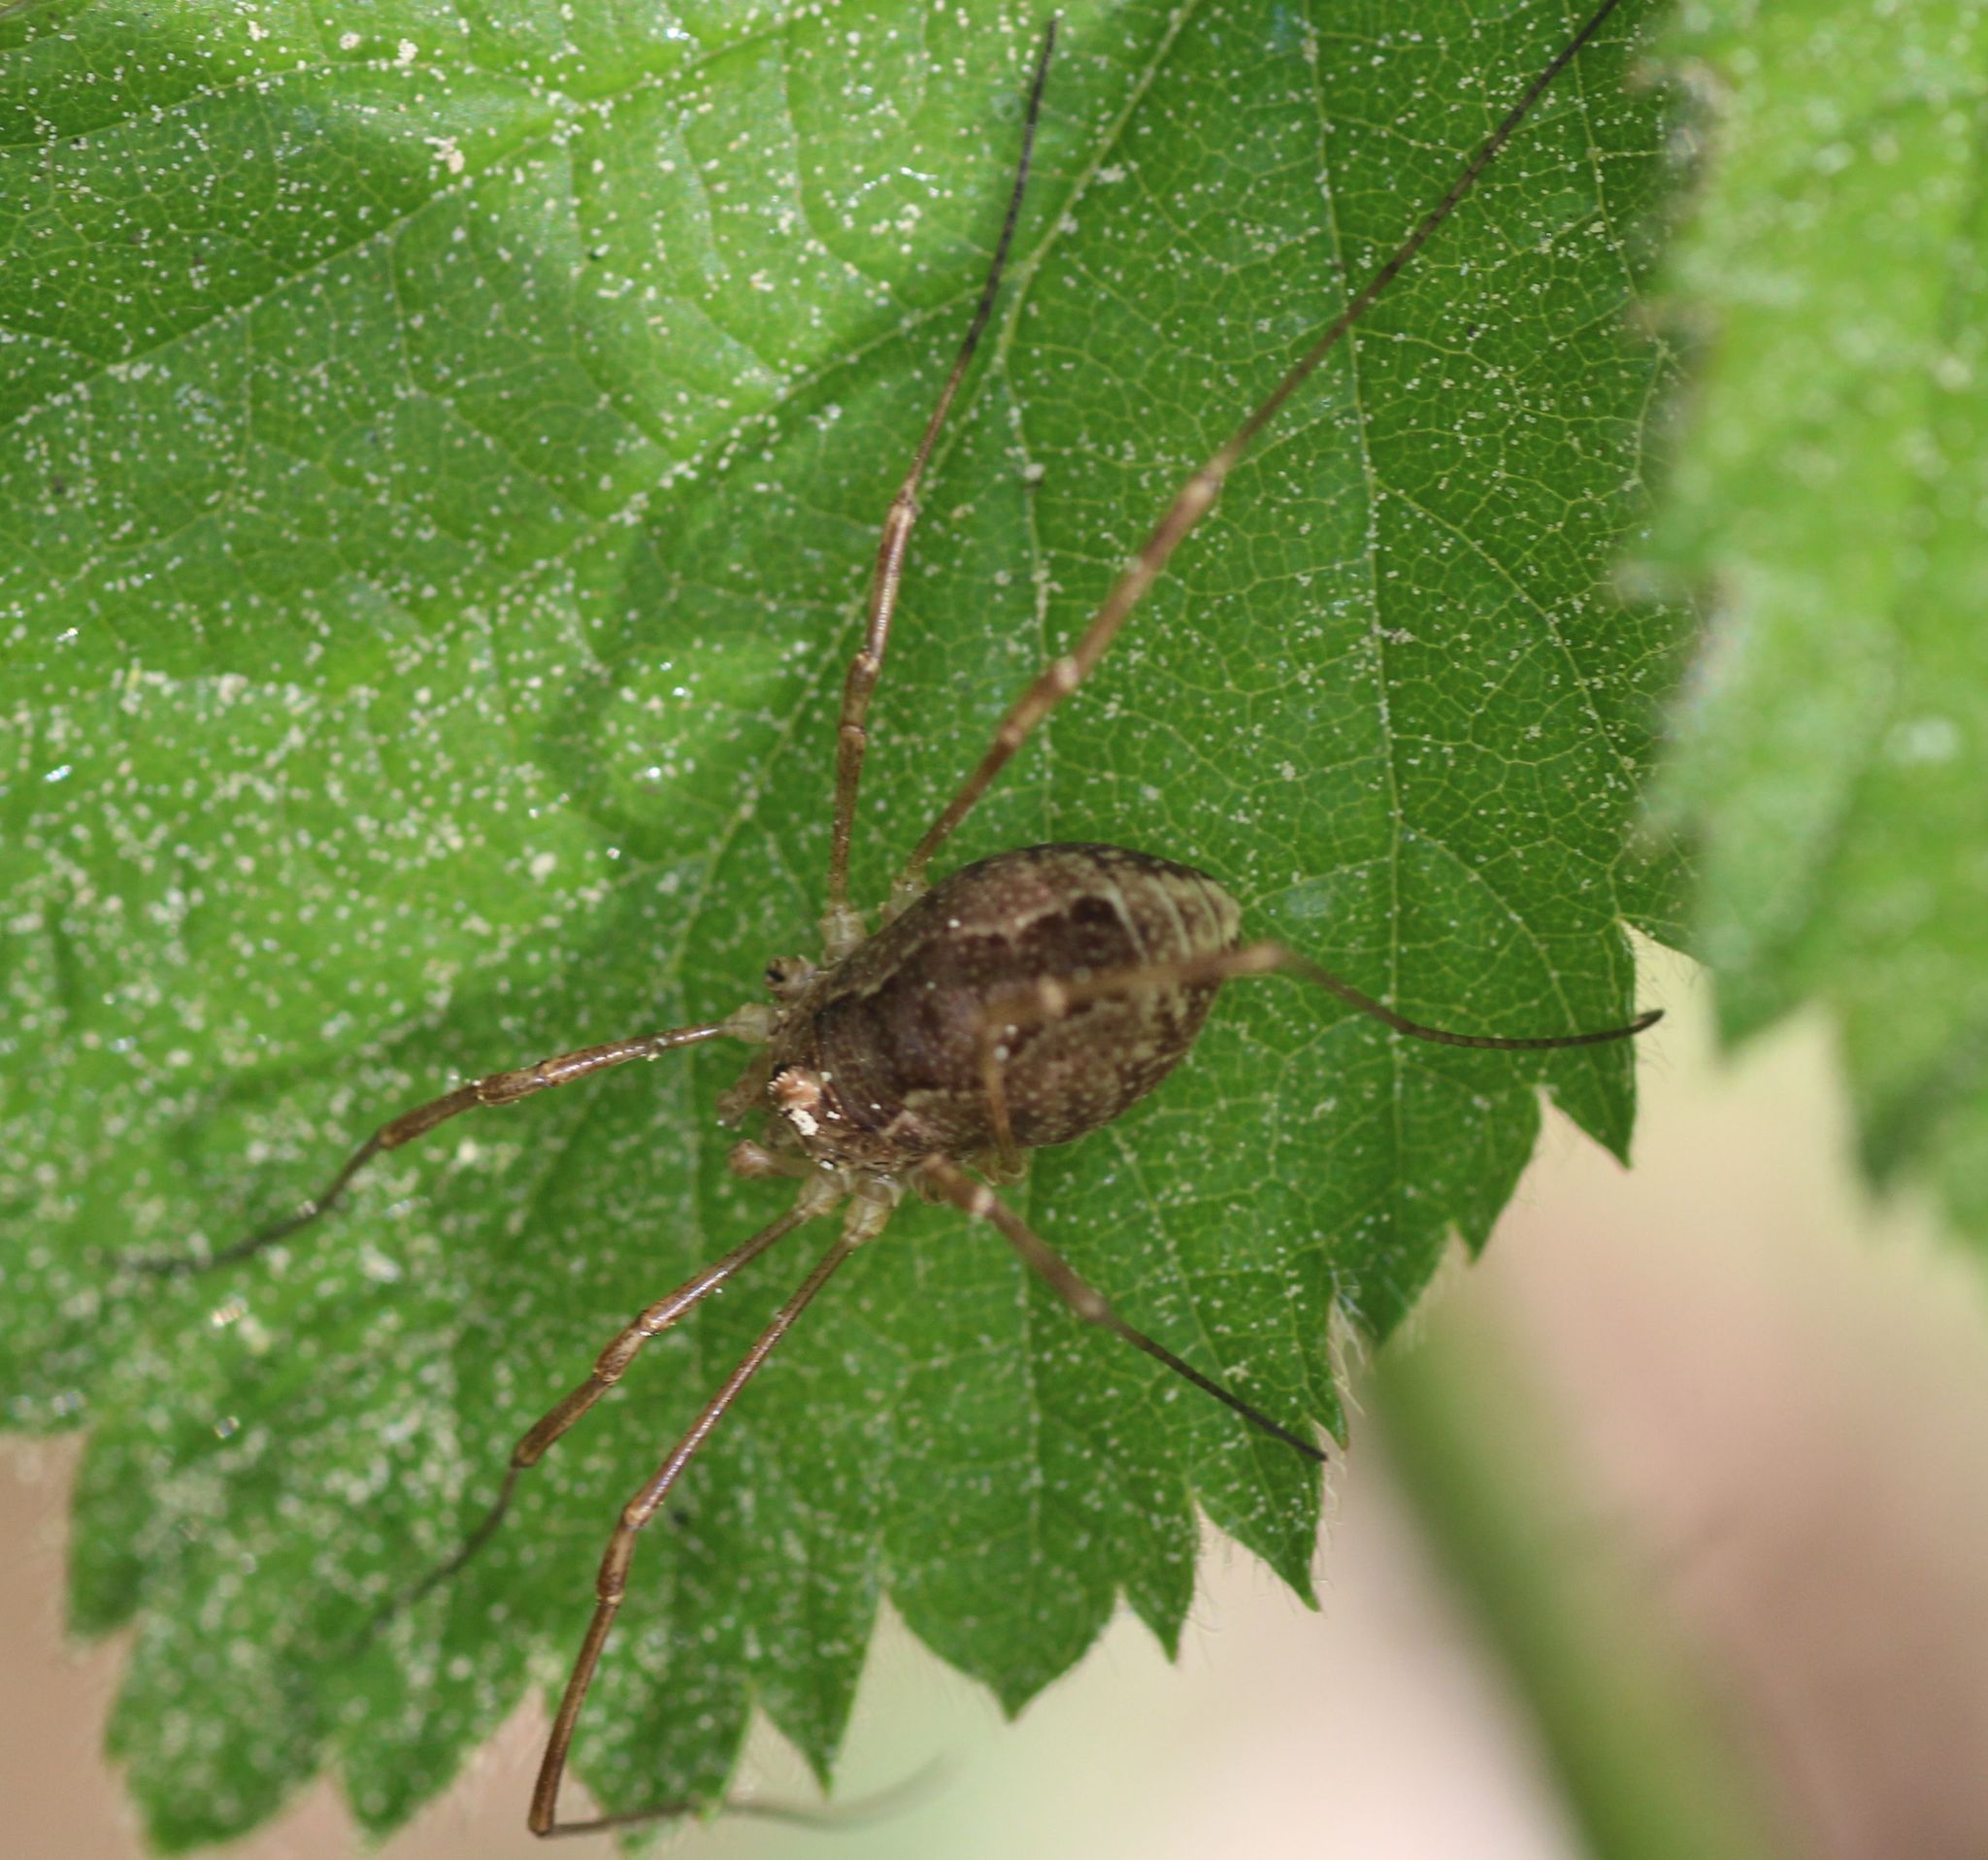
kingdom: Animalia
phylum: Arthropoda
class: Arachnida
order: Opiliones
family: Phalangiidae
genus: Rilaena
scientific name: Rilaena triangularis
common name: Spring harvestman
